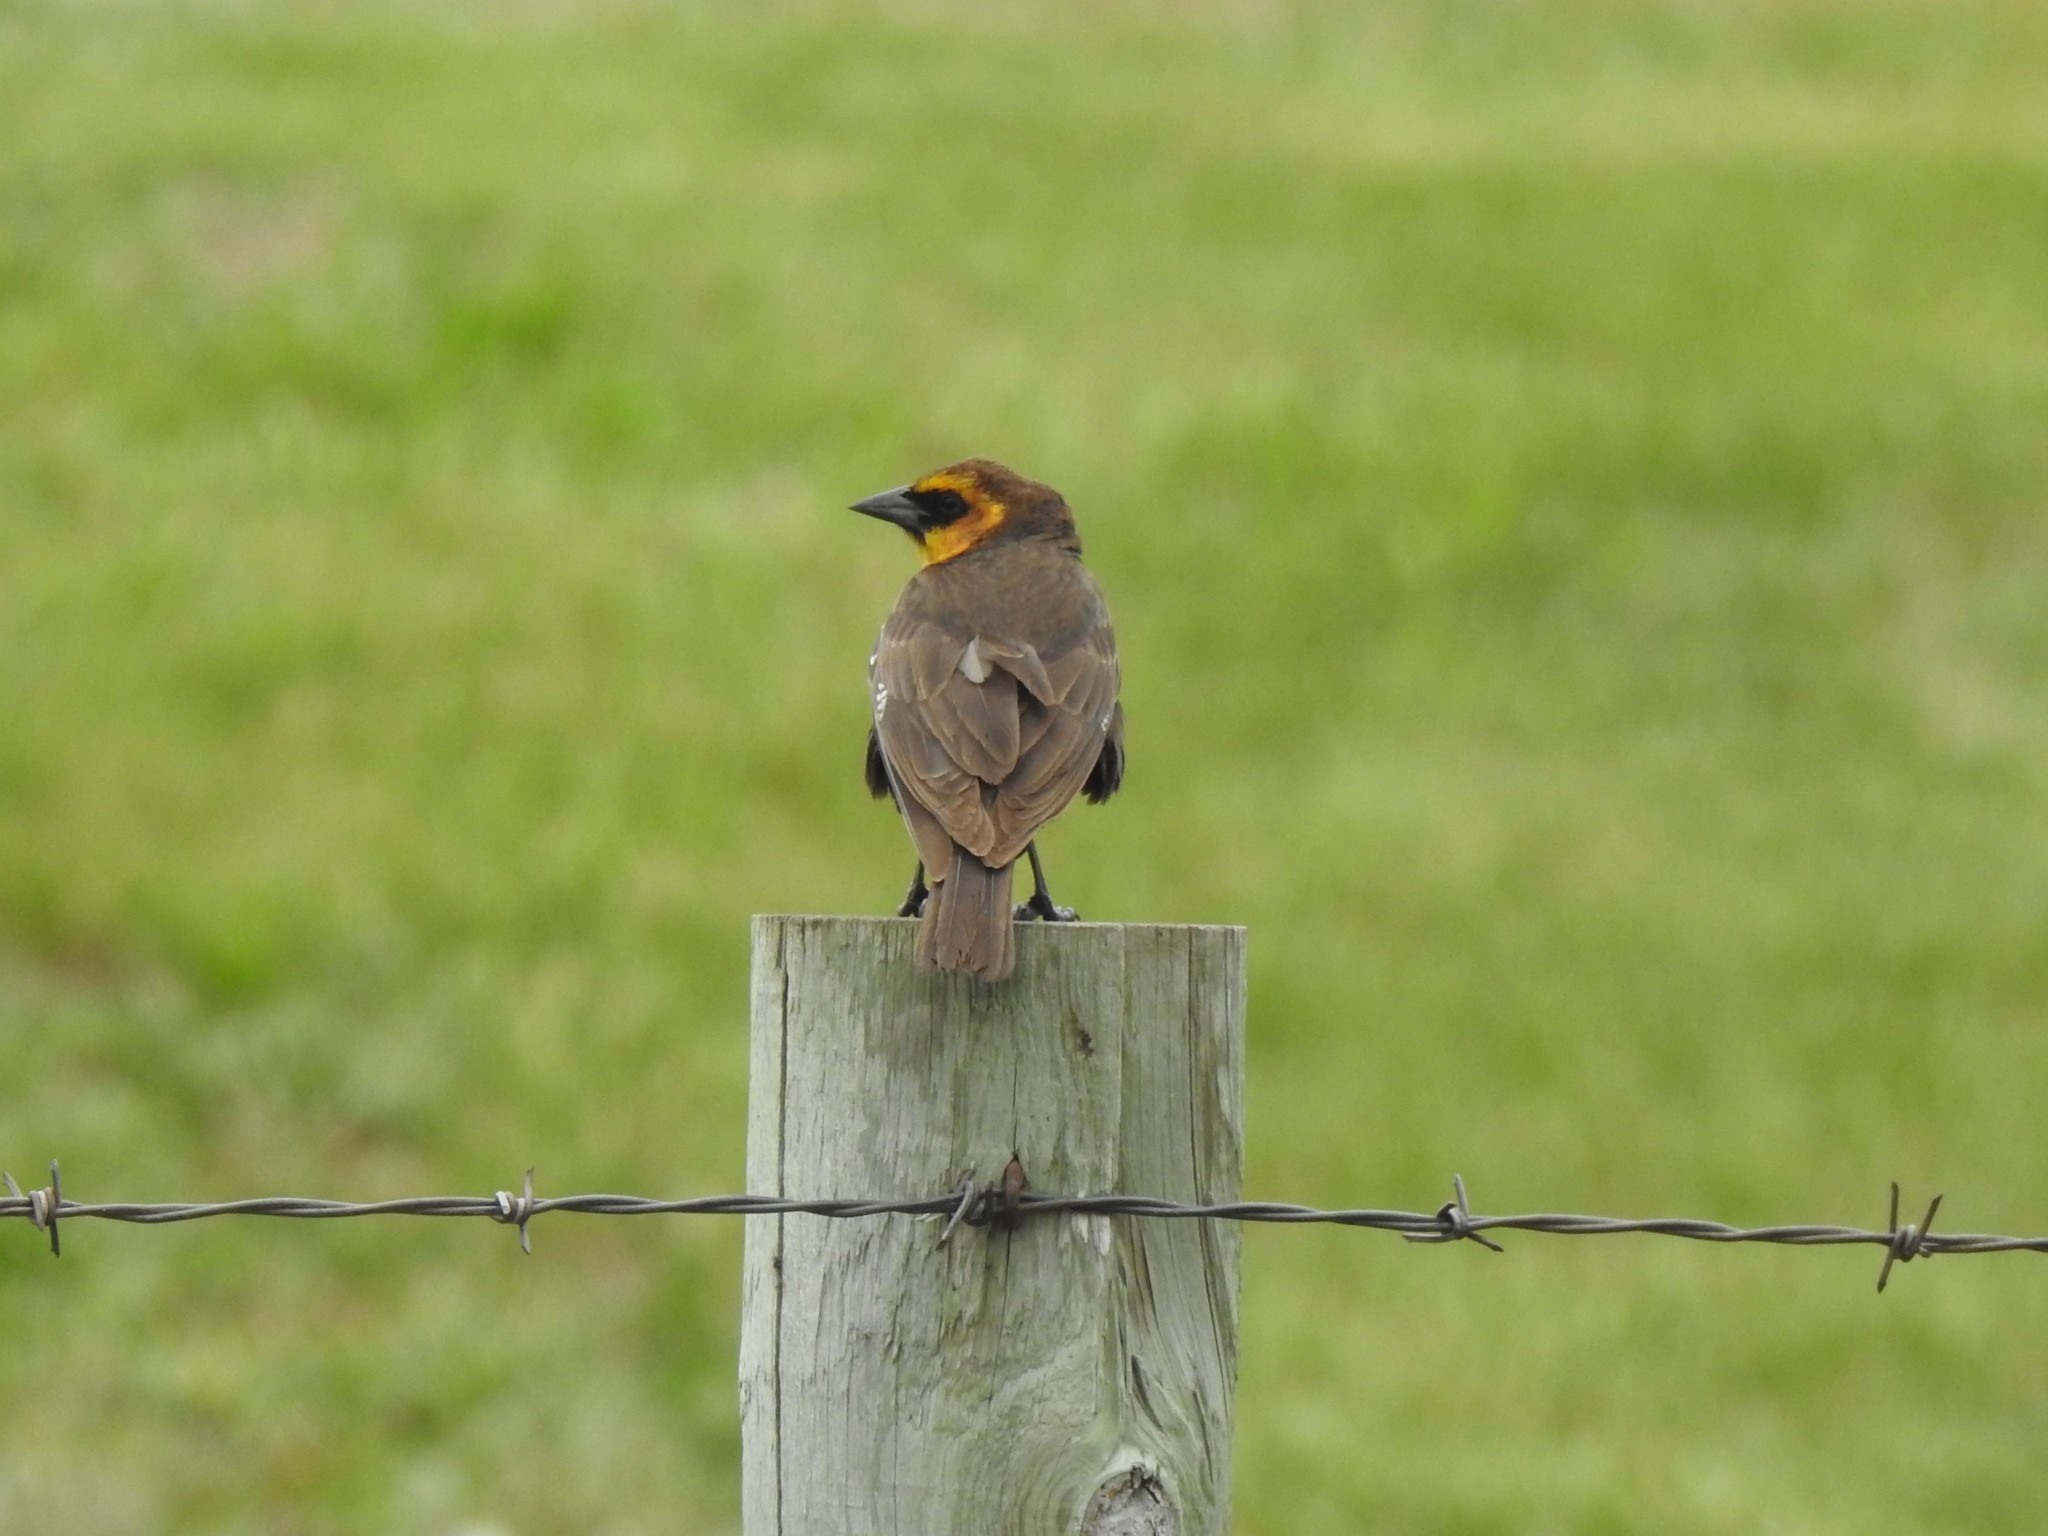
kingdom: Animalia
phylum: Chordata
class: Aves
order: Passeriformes
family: Icteridae
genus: Xanthocephalus
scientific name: Xanthocephalus xanthocephalus
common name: Yellow-headed blackbird
